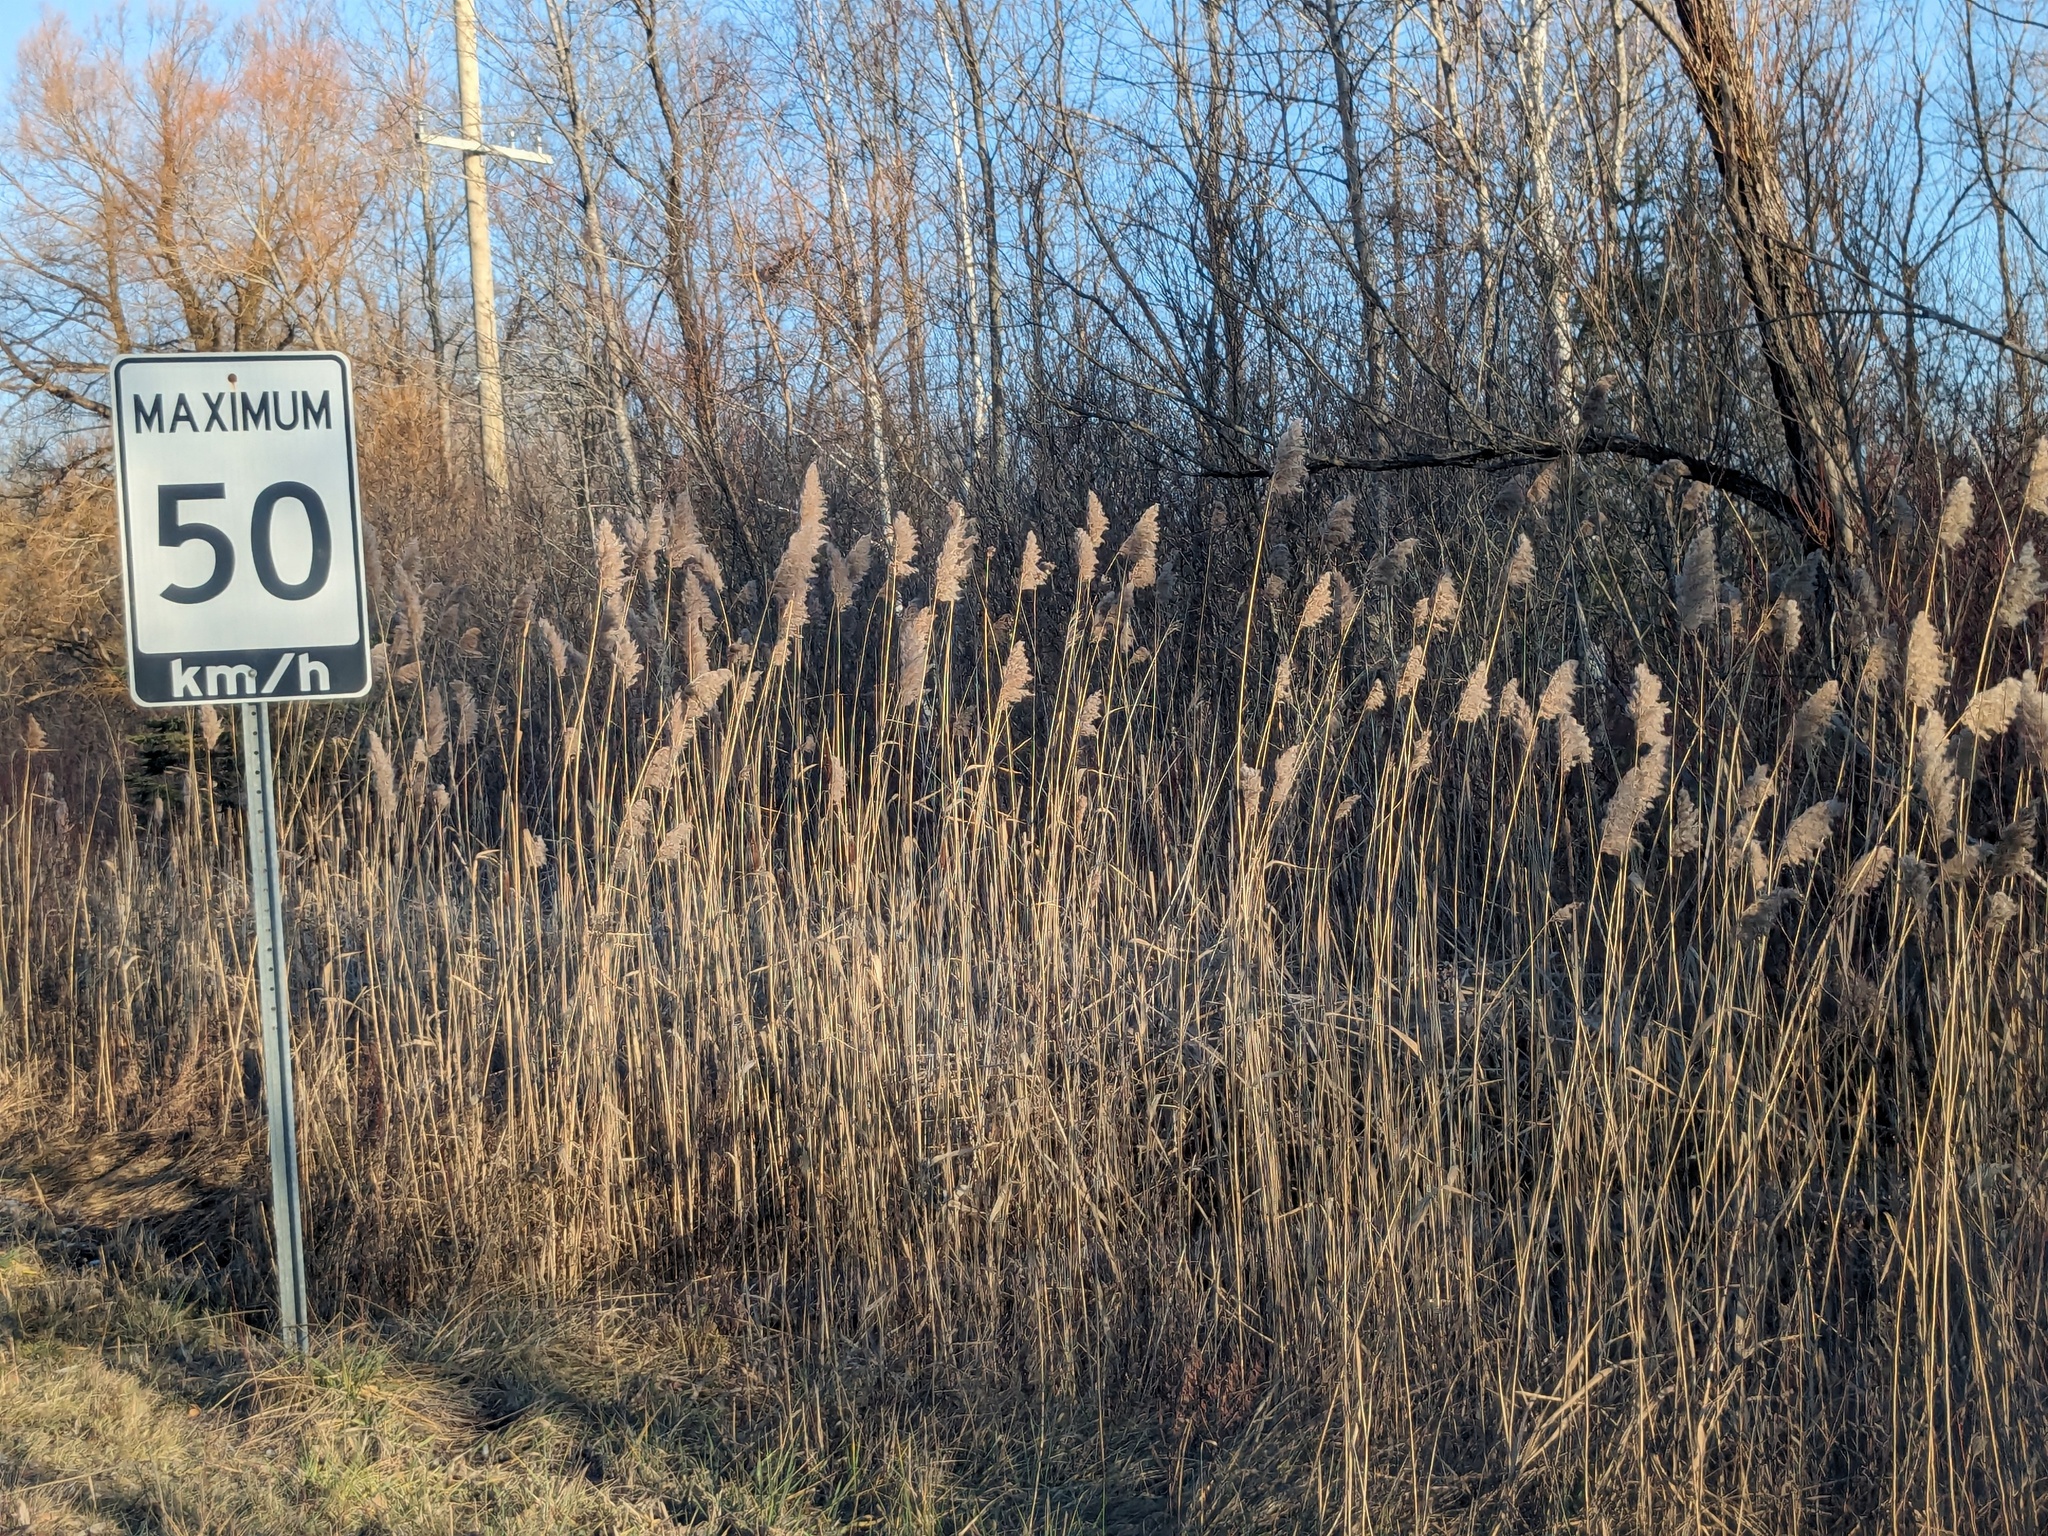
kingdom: Plantae
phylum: Tracheophyta
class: Liliopsida
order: Poales
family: Poaceae
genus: Phragmites
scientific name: Phragmites australis
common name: Common reed
